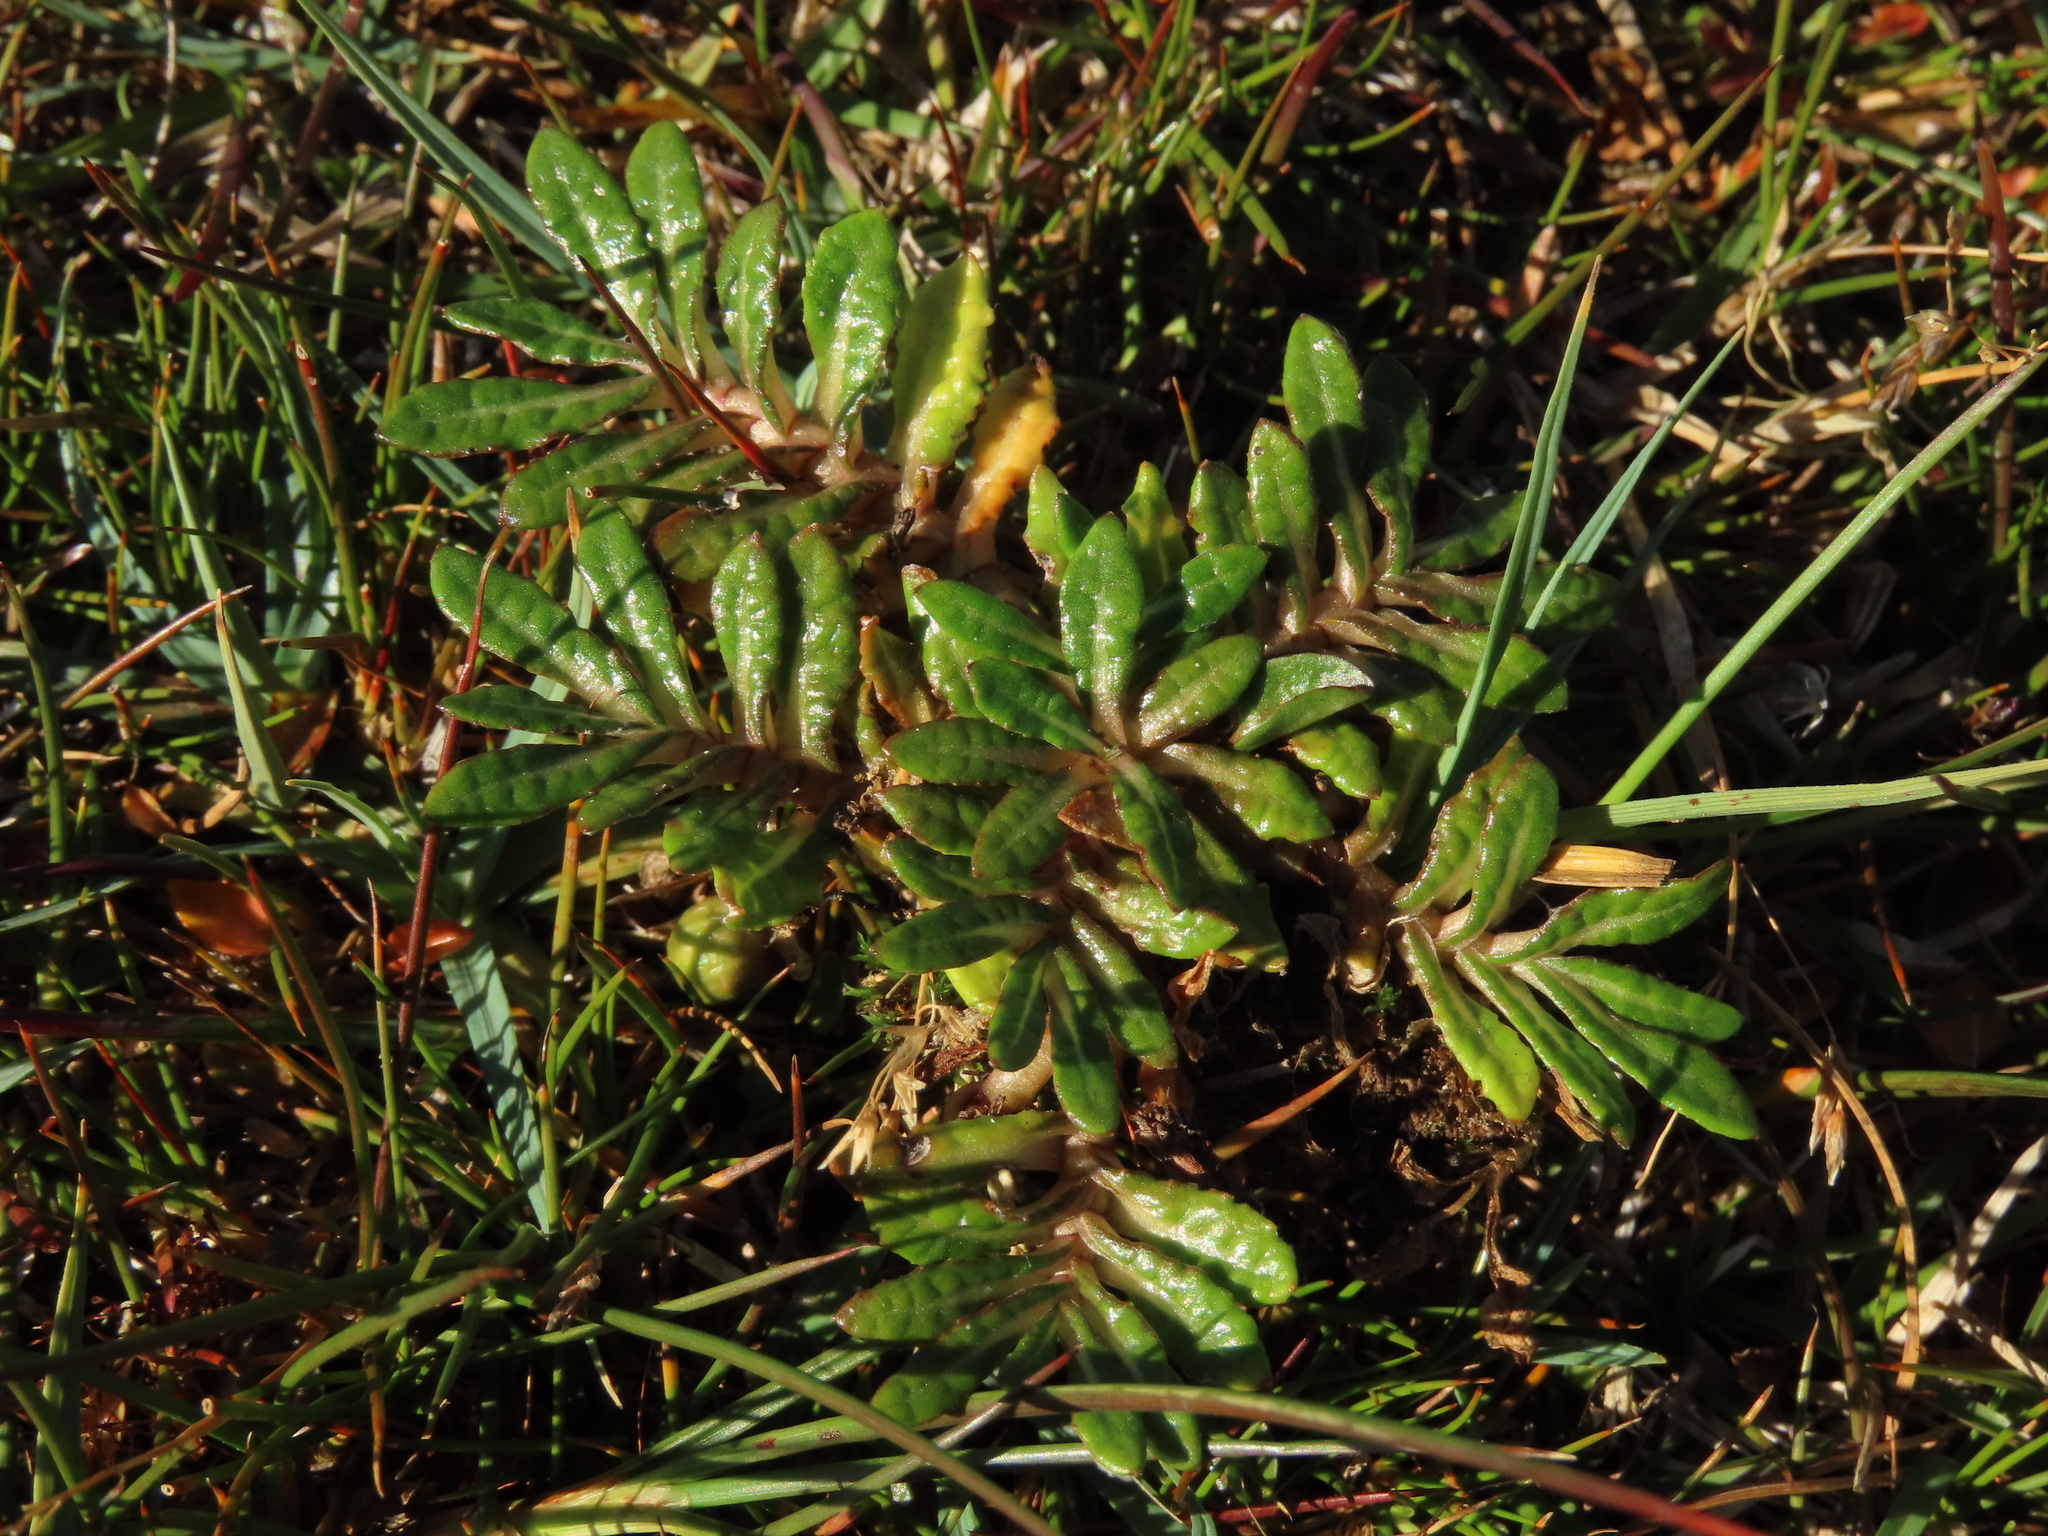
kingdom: Plantae
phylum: Tracheophyta
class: Magnoliopsida
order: Asterales
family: Asteraceae
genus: Eriachaenium
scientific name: Eriachaenium magellanicum
